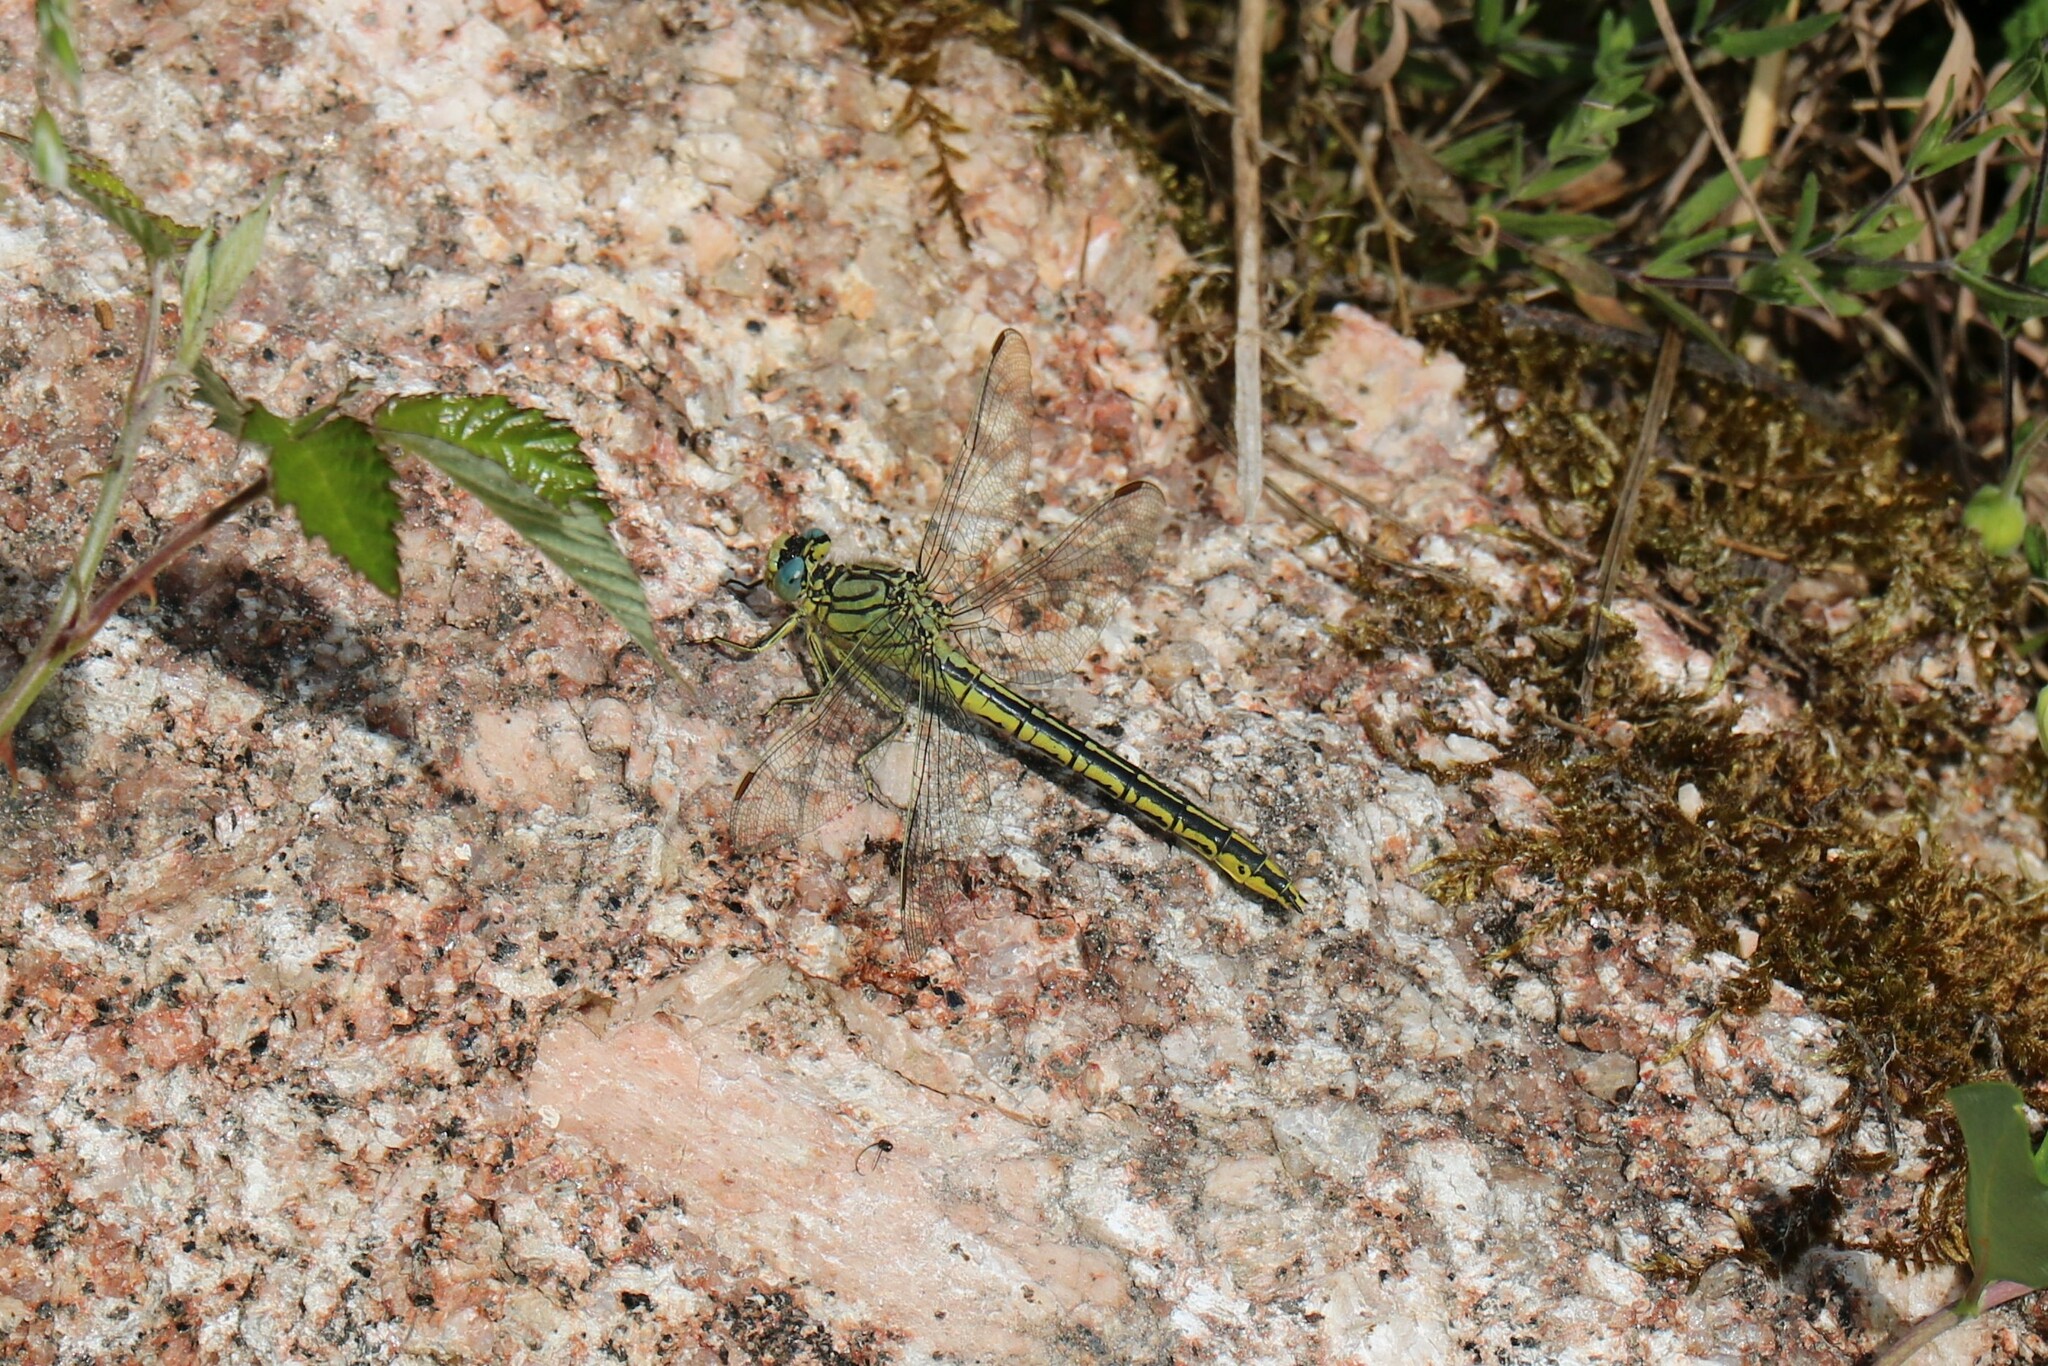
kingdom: Animalia
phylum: Arthropoda
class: Insecta
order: Odonata
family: Gomphidae
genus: Gomphus
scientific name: Gomphus pulchellus
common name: Western clubtail
